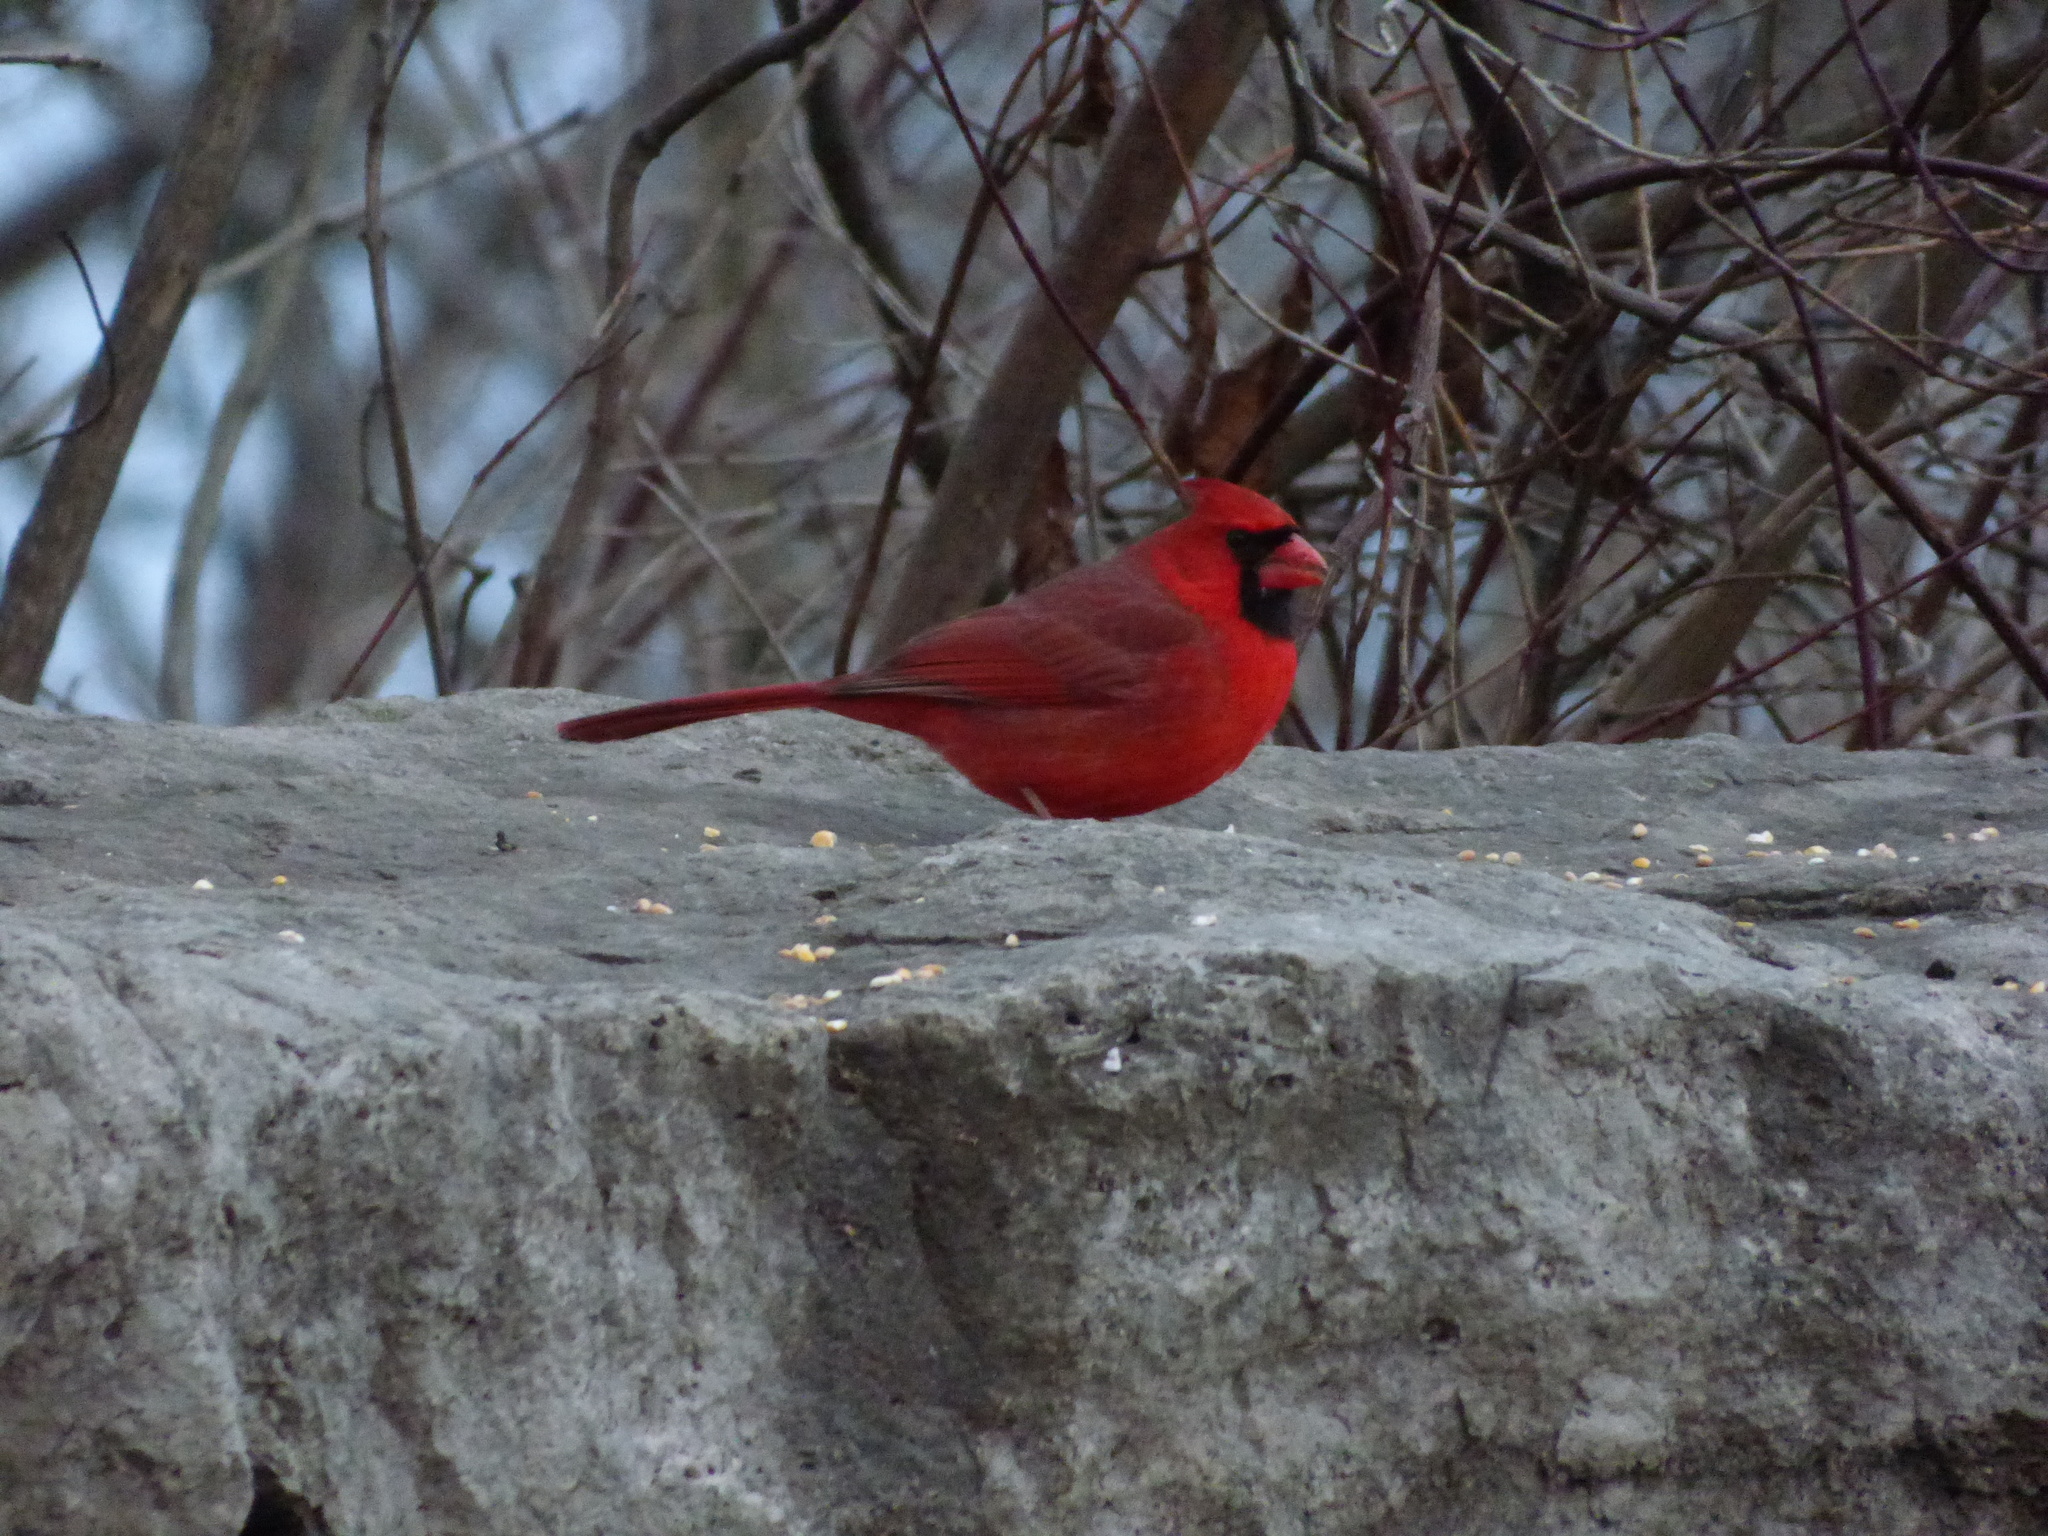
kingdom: Animalia
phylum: Chordata
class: Aves
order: Passeriformes
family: Cardinalidae
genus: Cardinalis
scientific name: Cardinalis cardinalis
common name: Northern cardinal
